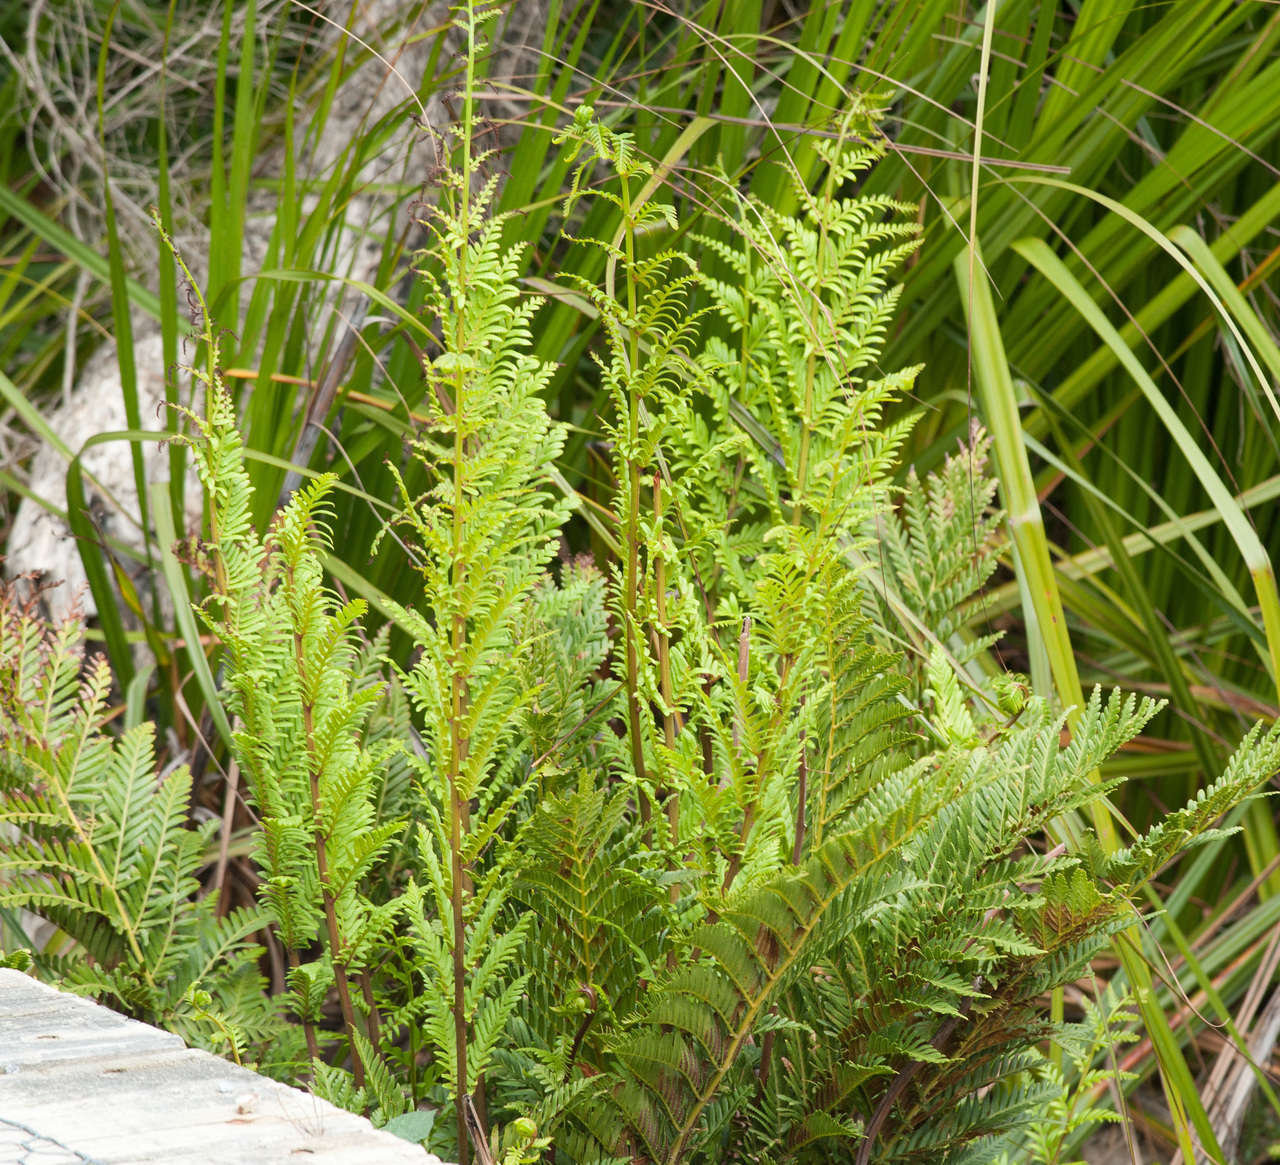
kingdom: Plantae
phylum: Tracheophyta
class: Polypodiopsida
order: Osmundales
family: Osmundaceae
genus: Todea
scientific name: Todea barbara
